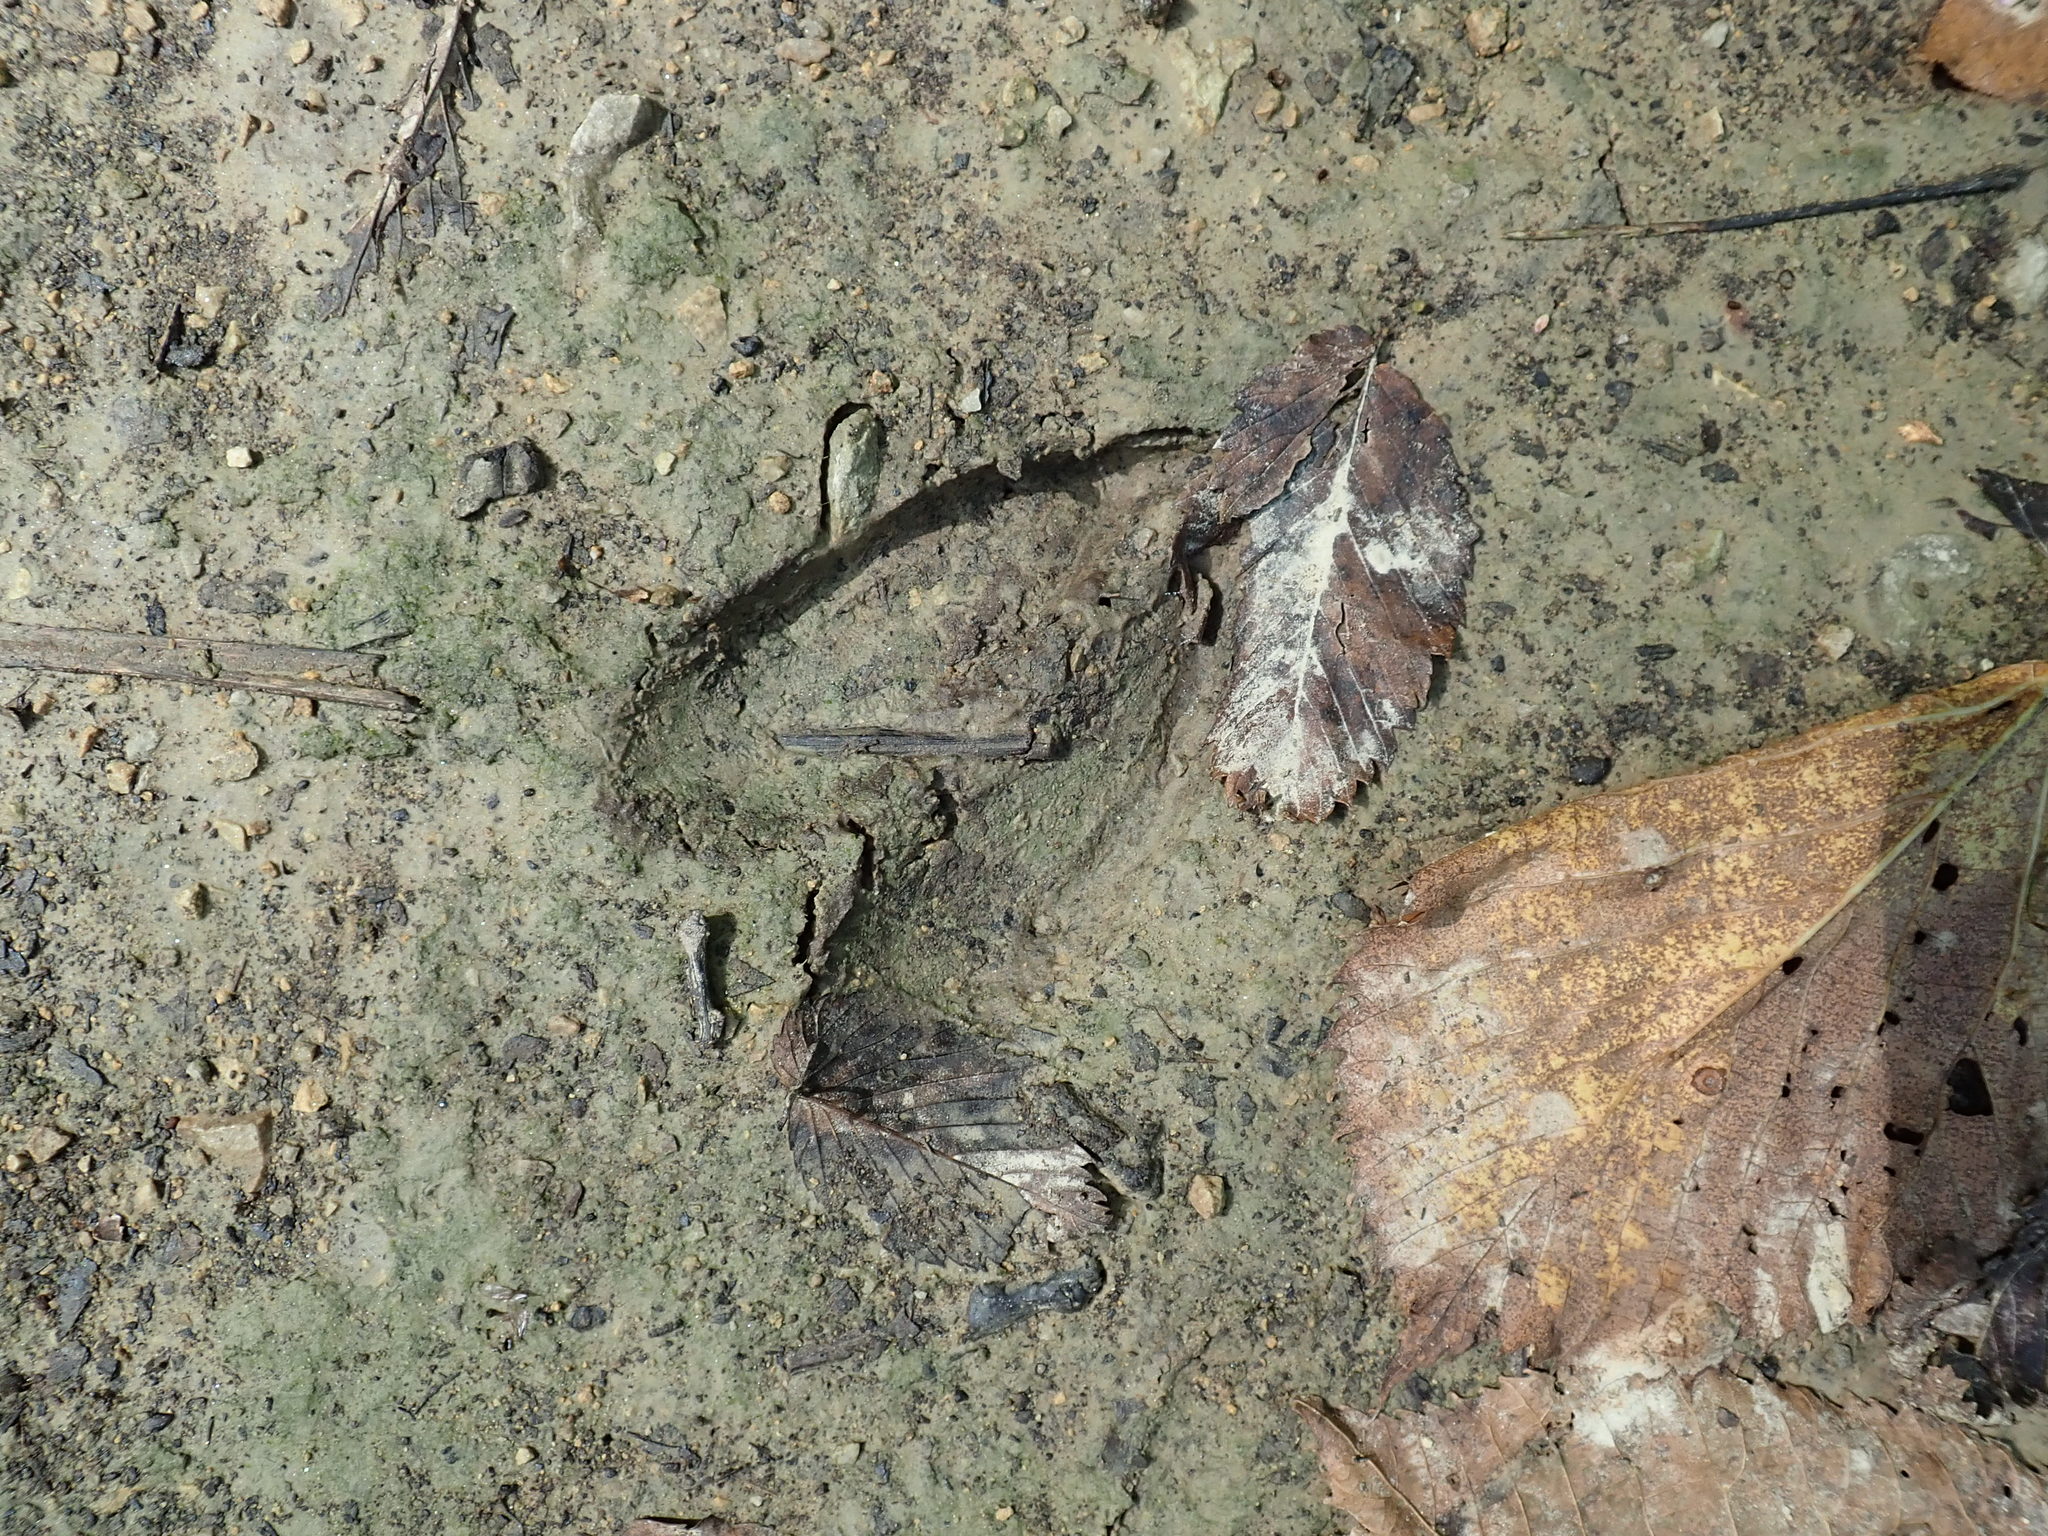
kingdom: Animalia
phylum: Chordata
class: Mammalia
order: Artiodactyla
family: Cervidae
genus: Odocoileus
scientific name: Odocoileus virginianus
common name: White-tailed deer
